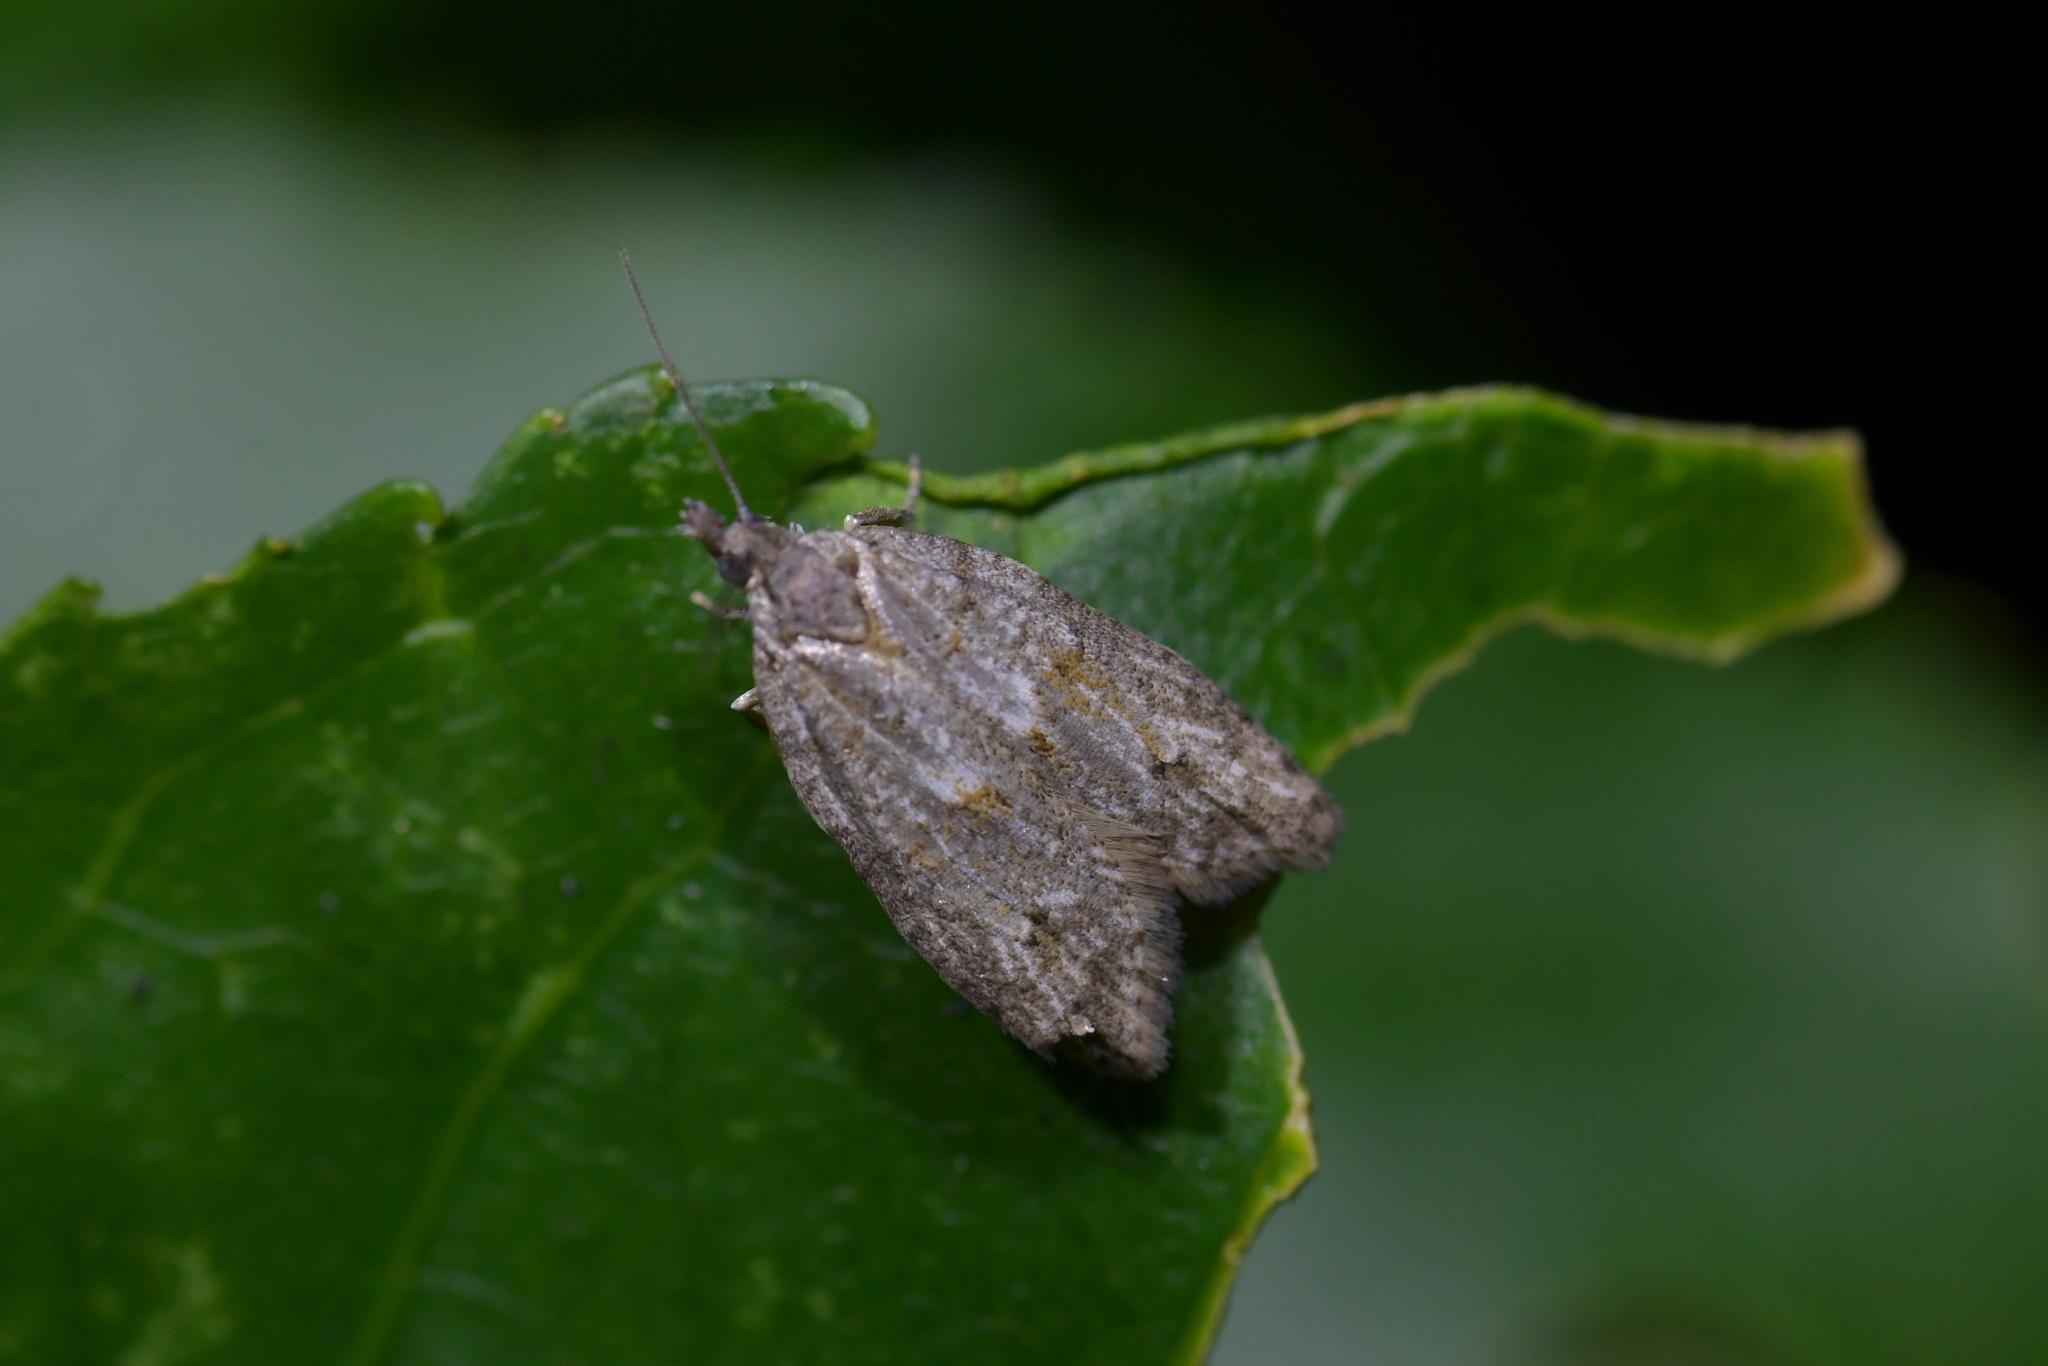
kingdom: Animalia
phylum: Arthropoda
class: Insecta
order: Lepidoptera
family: Tortricidae
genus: Prothelymna
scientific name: Prothelymna antiquana
